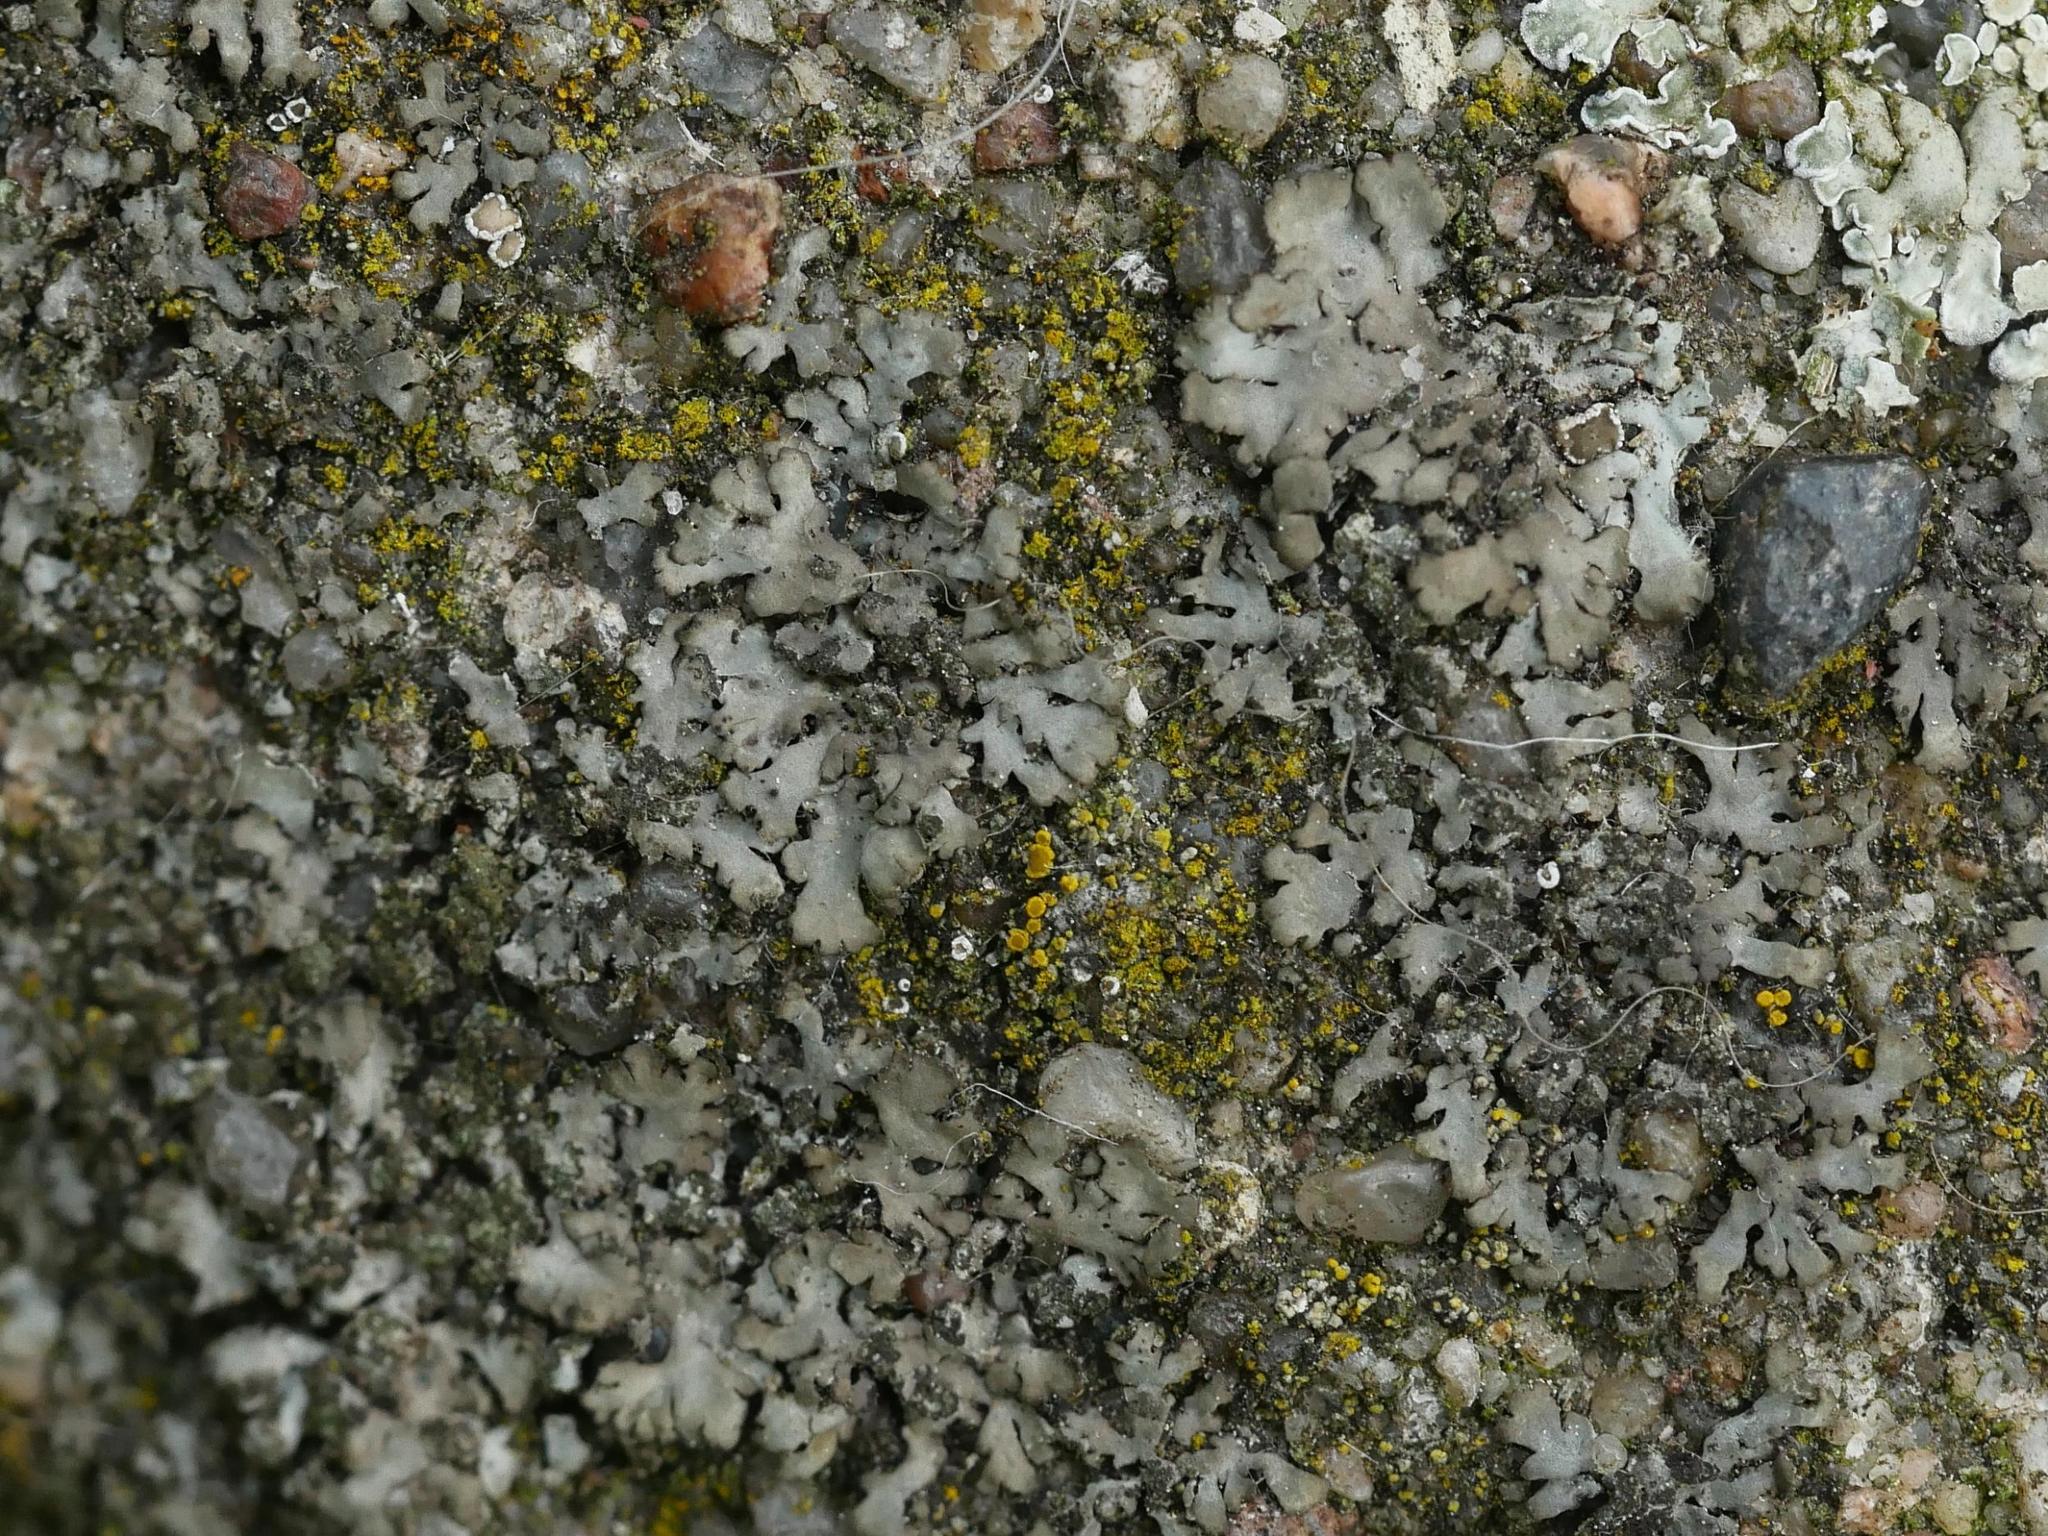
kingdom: Fungi
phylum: Ascomycota
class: Lecanoromycetes
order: Caliciales
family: Physciaceae
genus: Phaeophyscia
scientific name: Phaeophyscia orbicularis
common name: Mealy shadow lichen
